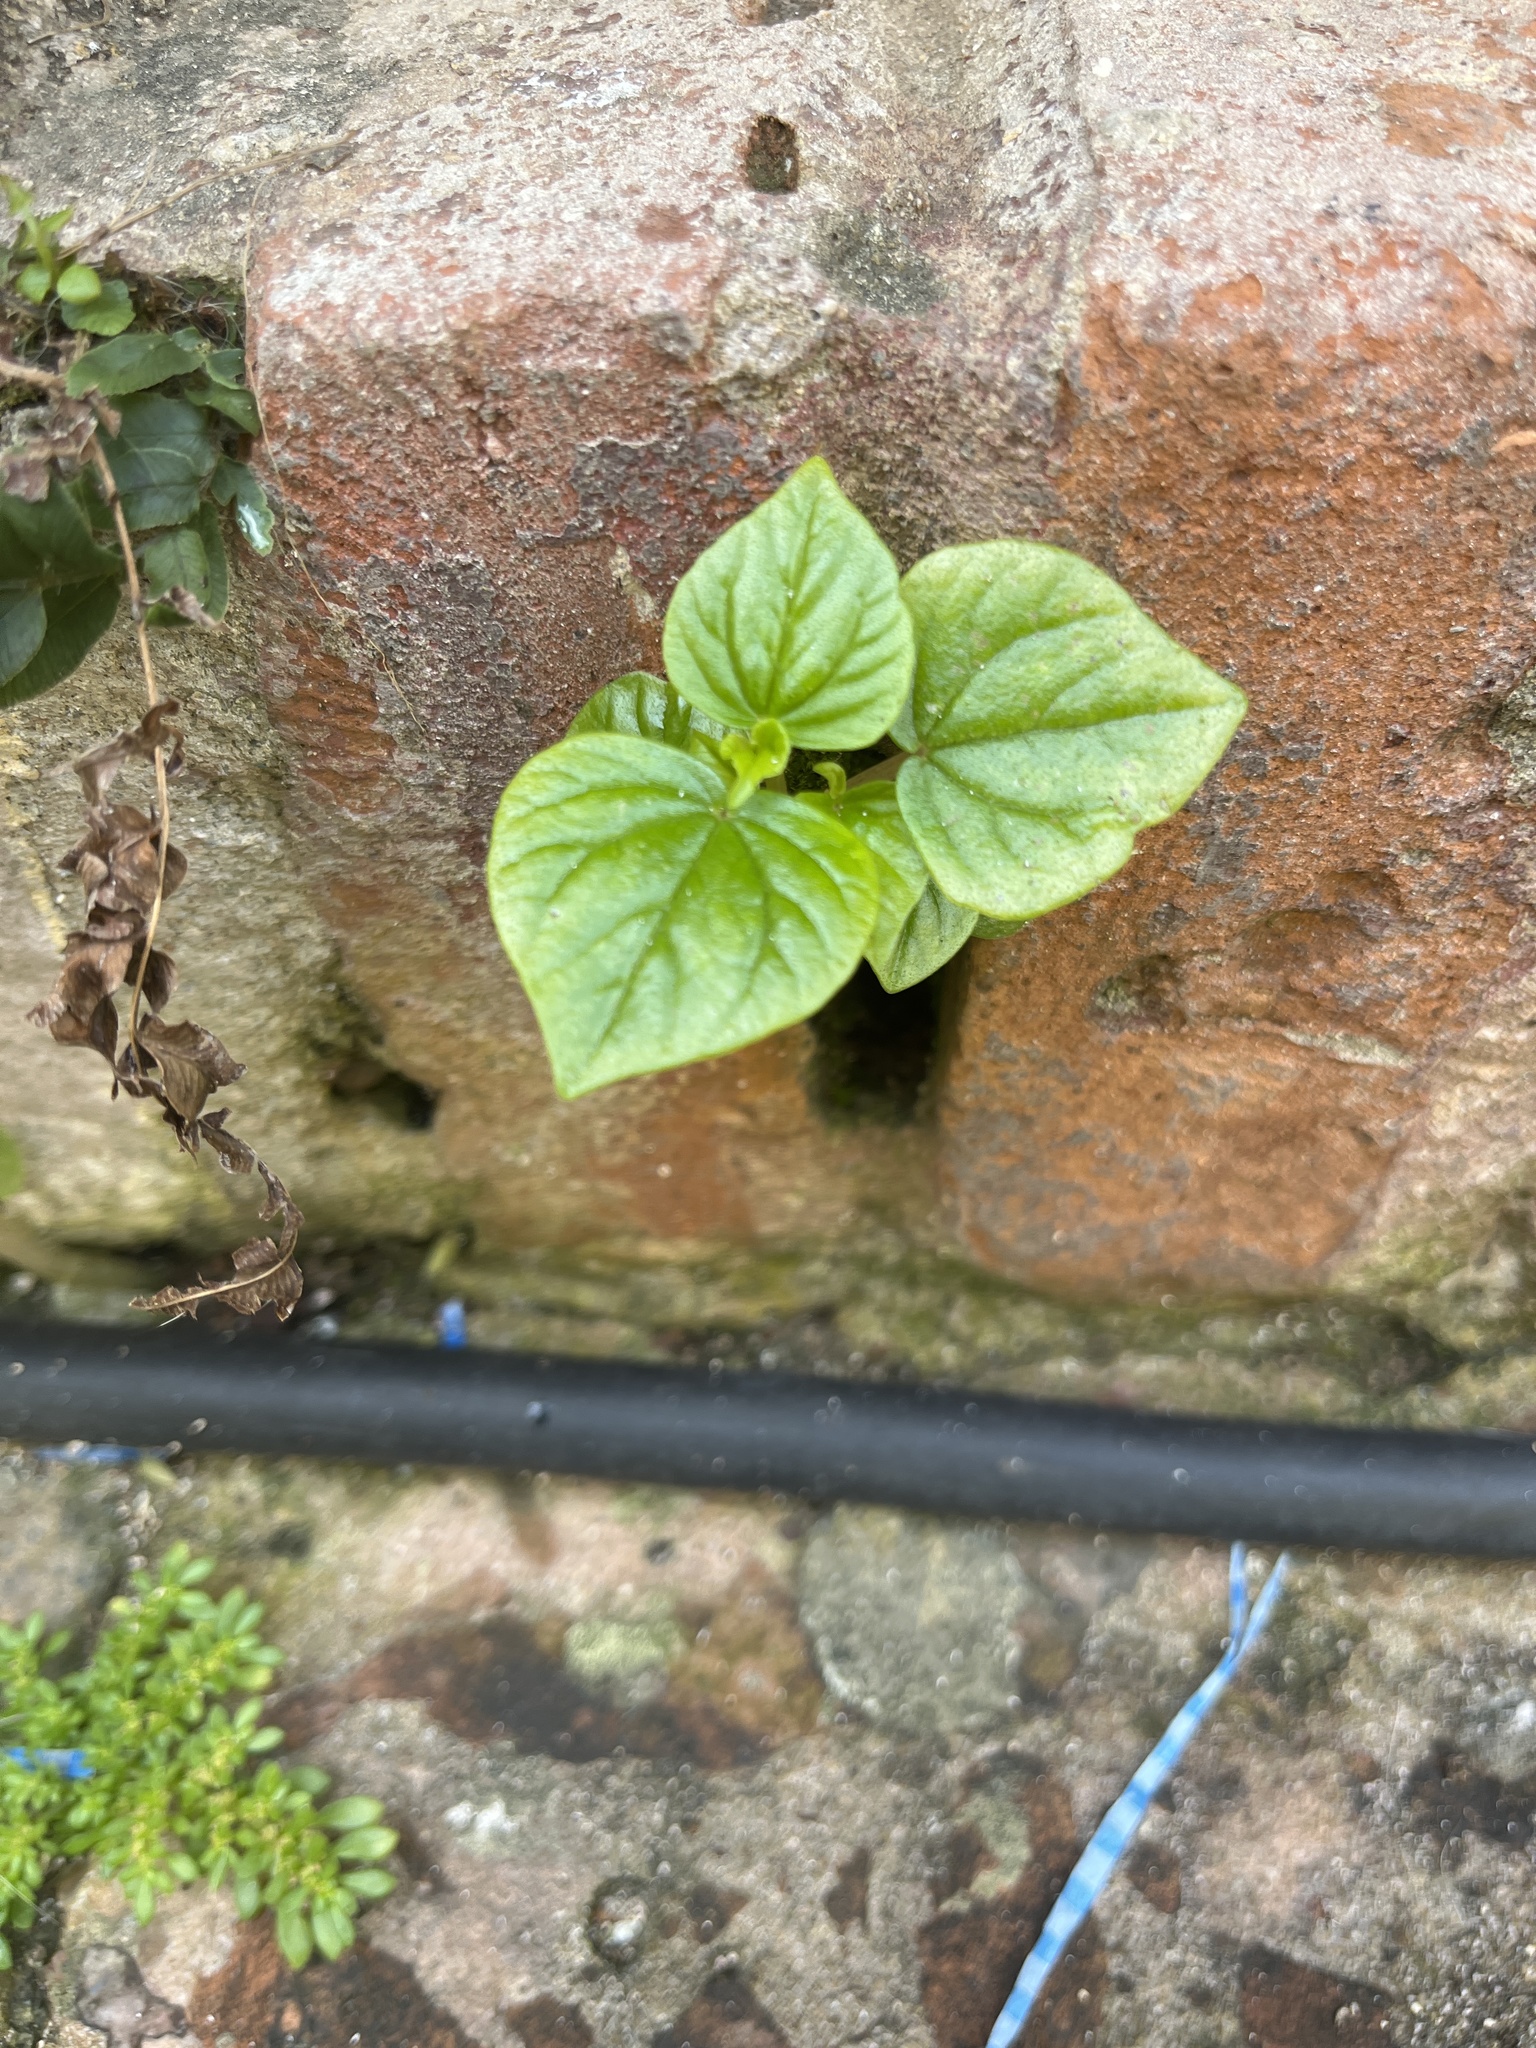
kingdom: Plantae
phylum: Tracheophyta
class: Magnoliopsida
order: Piperales
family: Piperaceae
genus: Peperomia
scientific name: Peperomia pellucida
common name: Man to man
